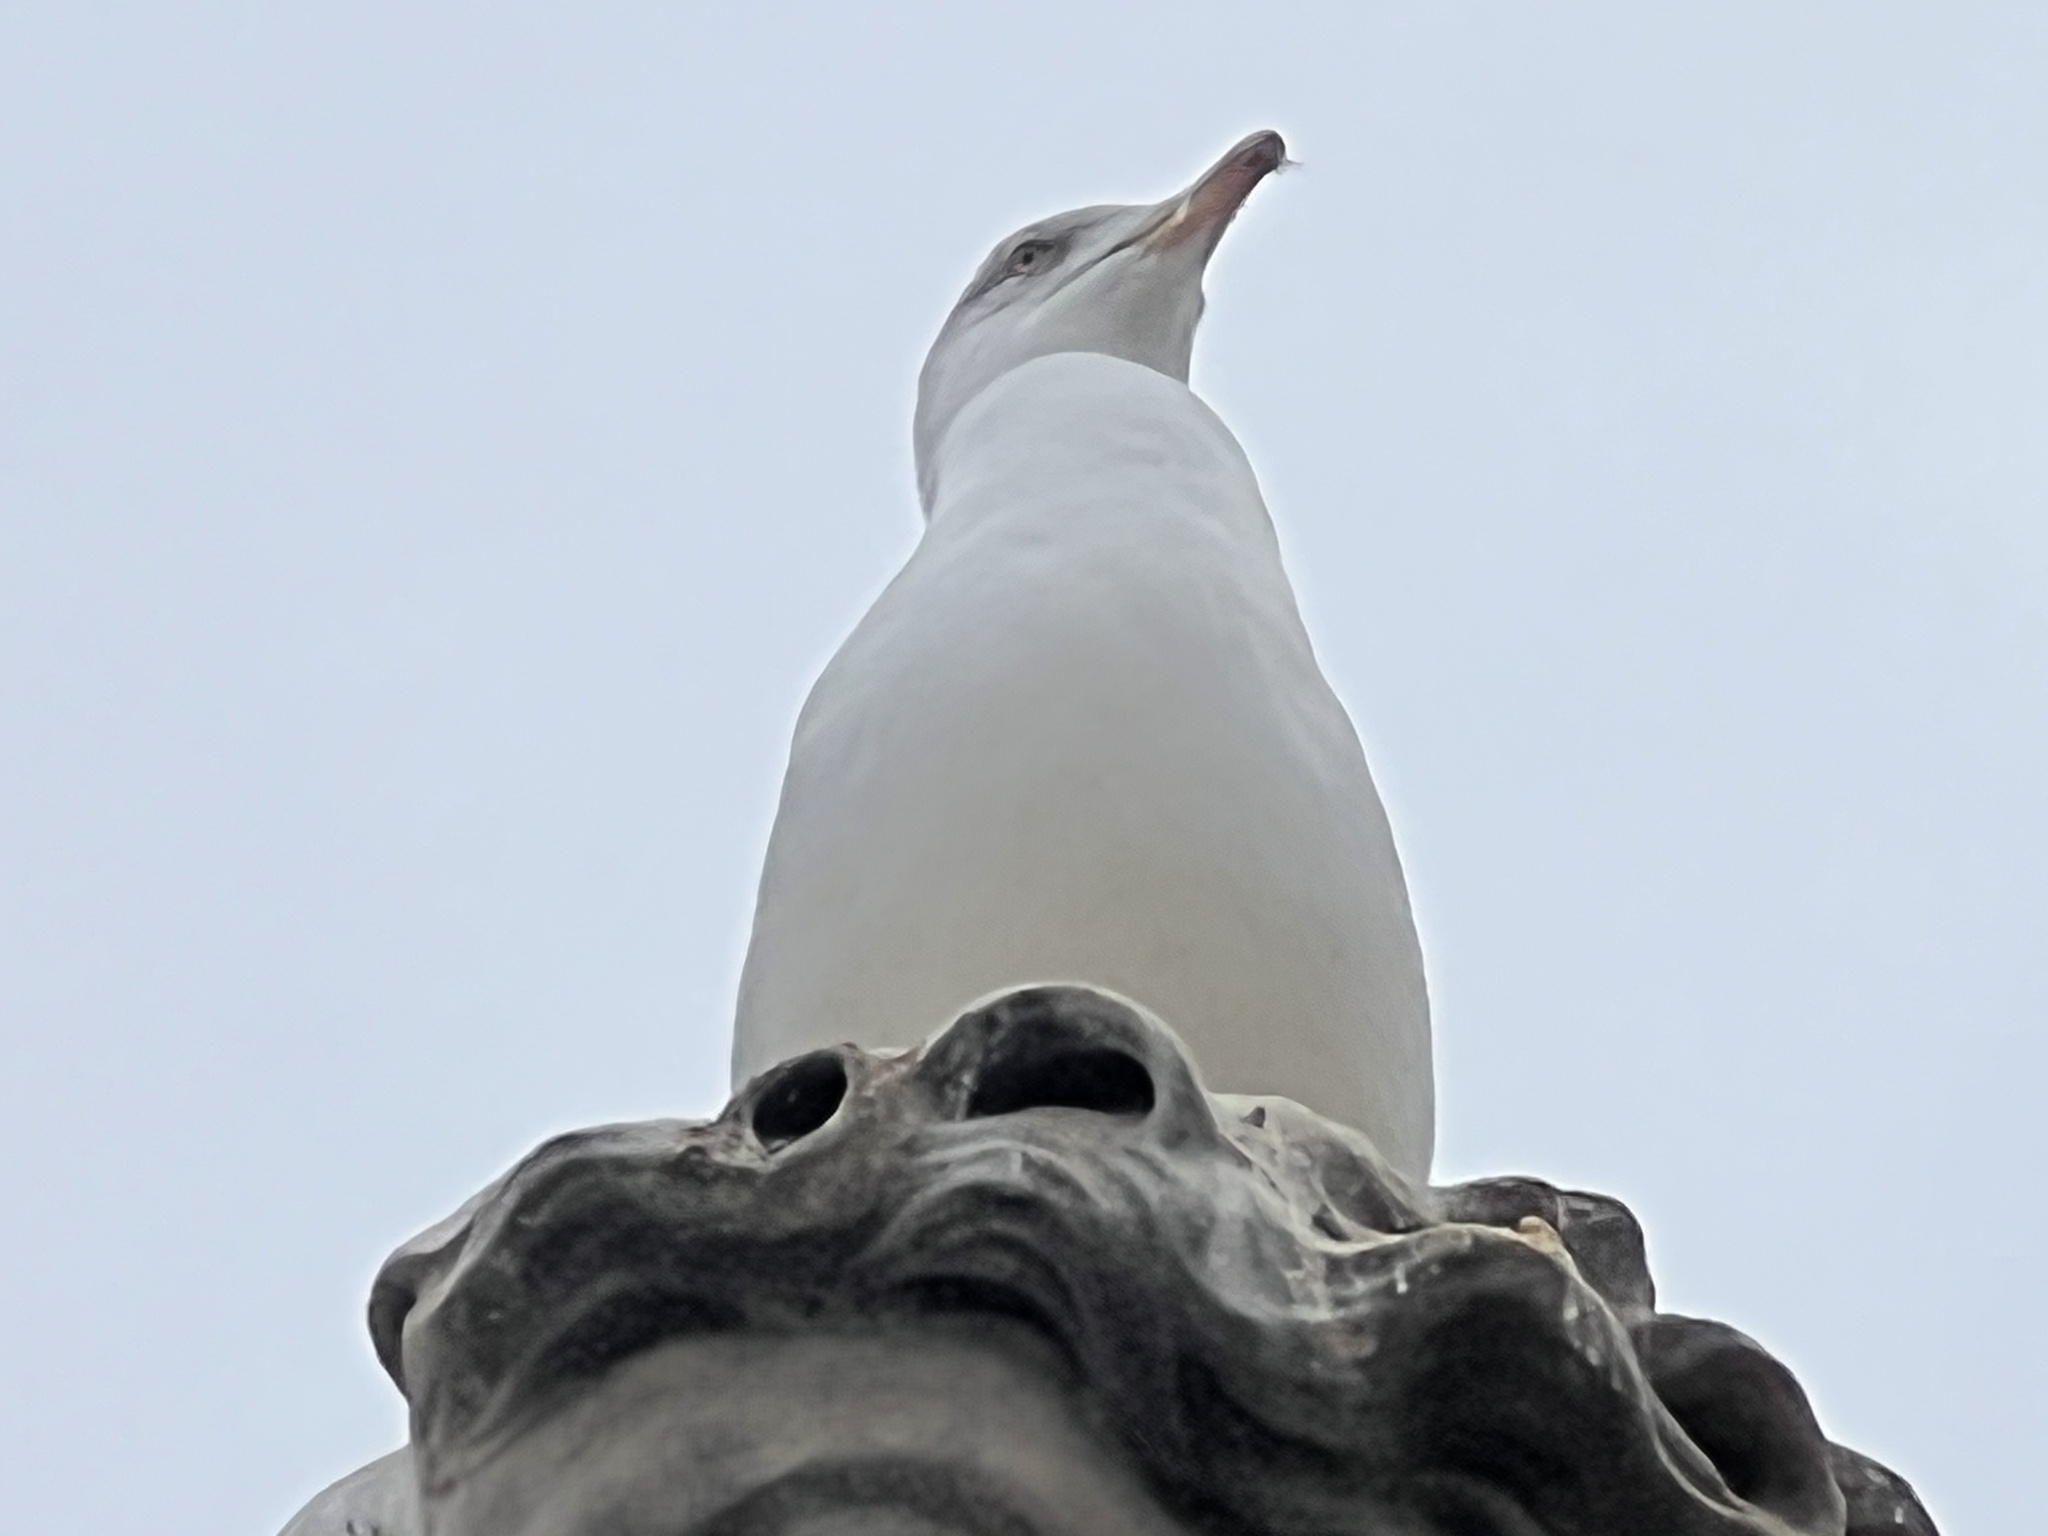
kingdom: Animalia
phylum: Chordata
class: Aves
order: Charadriiformes
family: Laridae
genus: Larus
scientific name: Larus michahellis
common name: Yellow-legged gull
